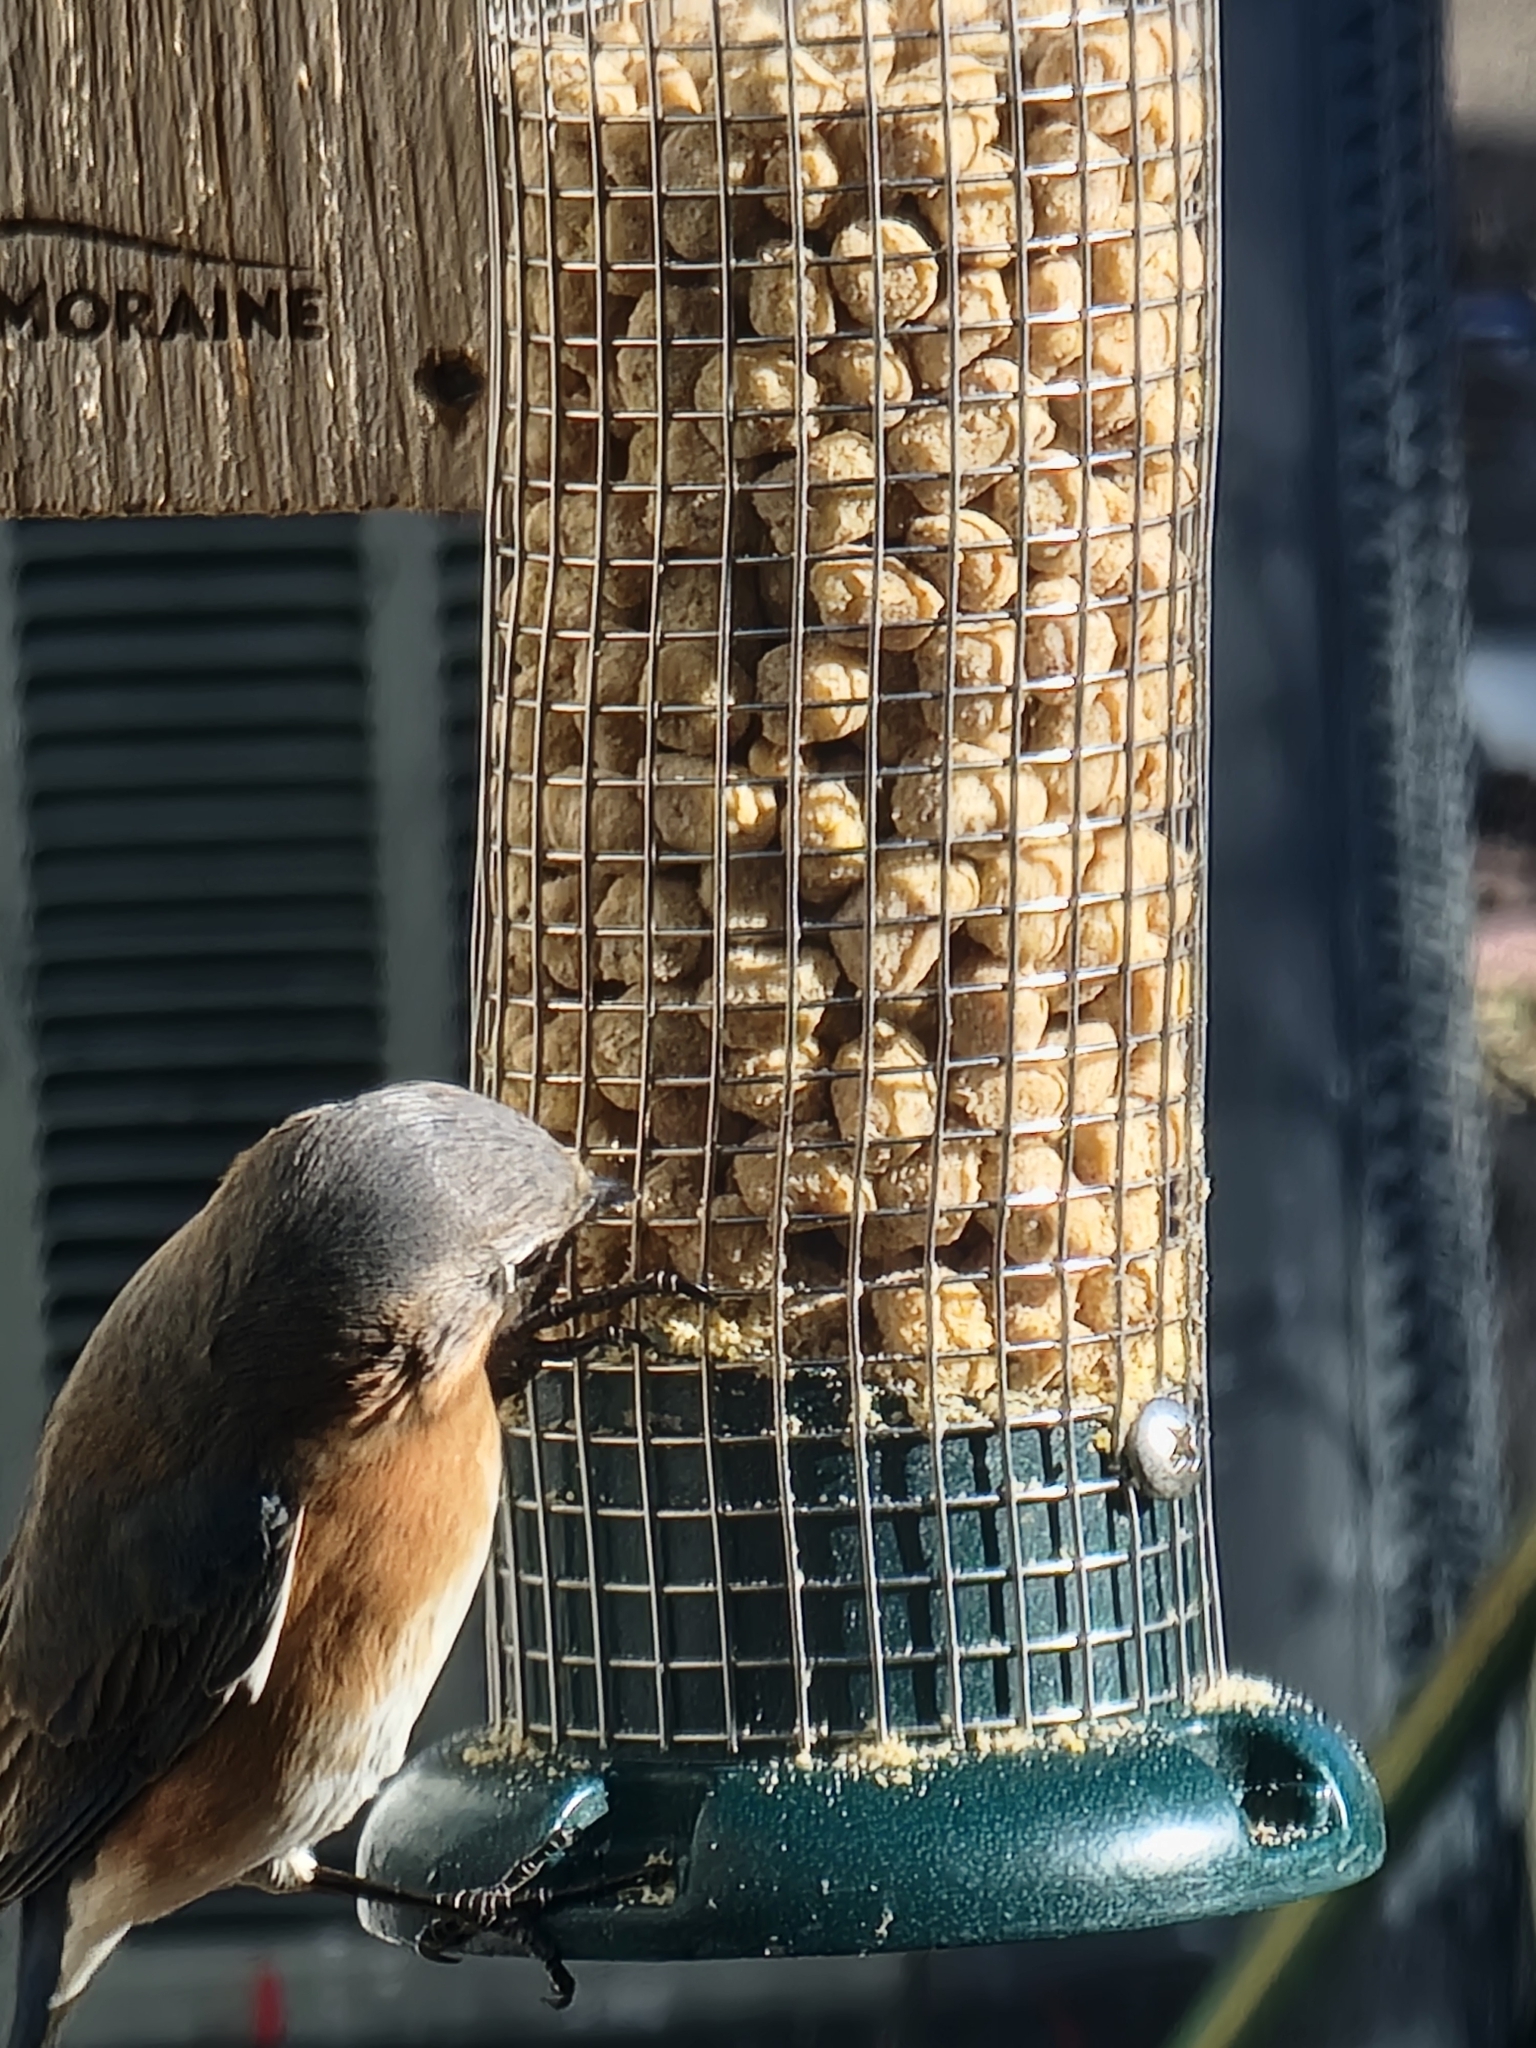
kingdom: Animalia
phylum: Chordata
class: Aves
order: Passeriformes
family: Turdidae
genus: Sialia
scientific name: Sialia sialis
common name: Eastern bluebird
